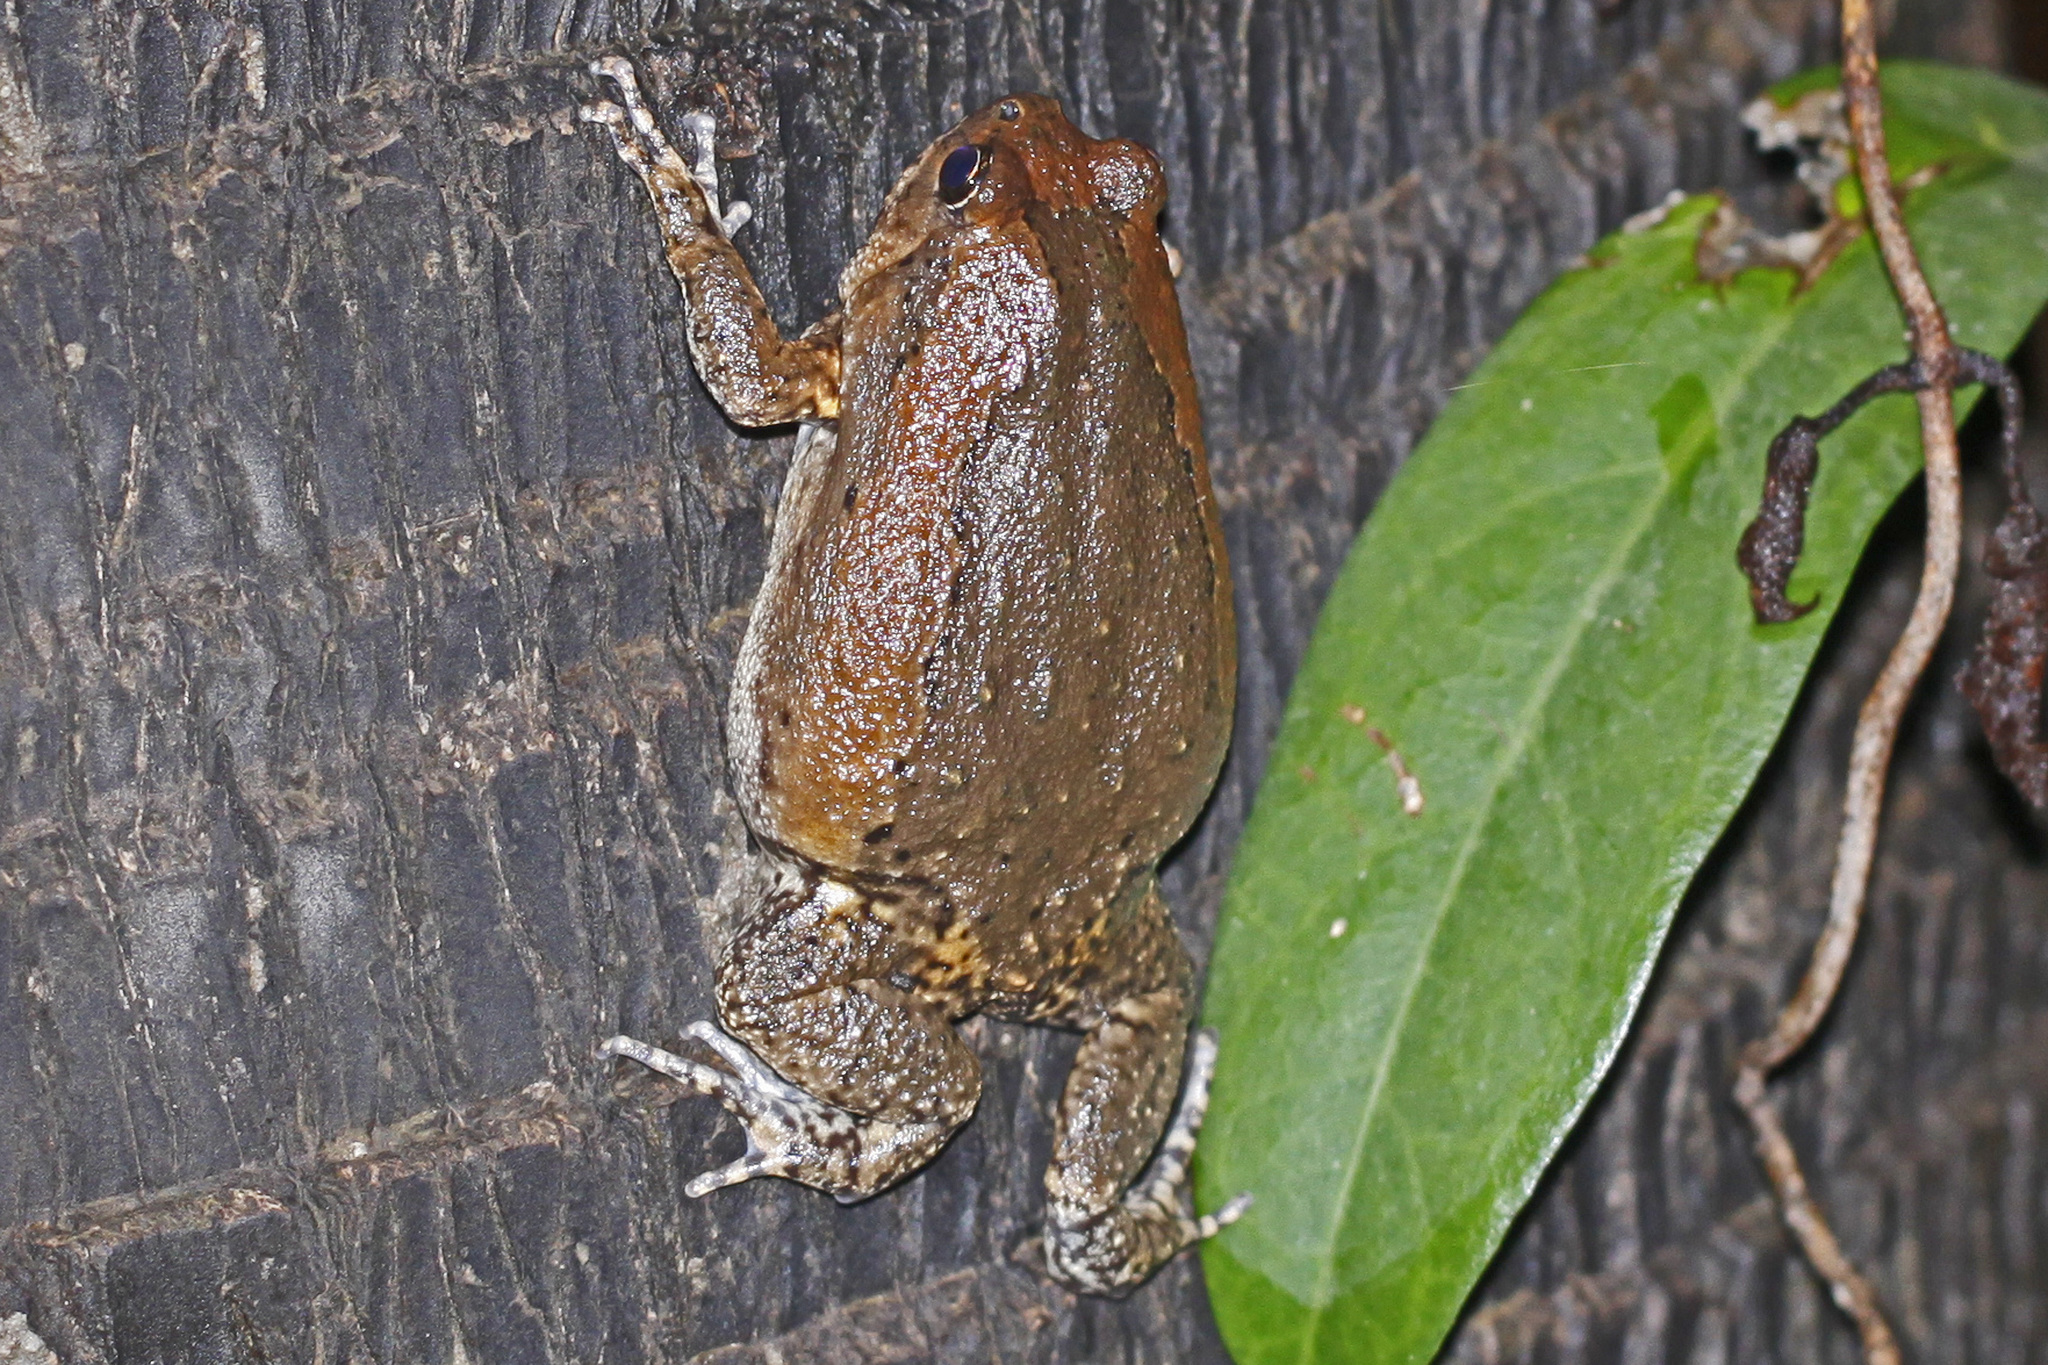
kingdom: Animalia
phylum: Chordata
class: Amphibia
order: Anura
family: Microhylidae
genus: Kaloula
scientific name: Kaloula pulchra
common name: Common,banded bullfrog
